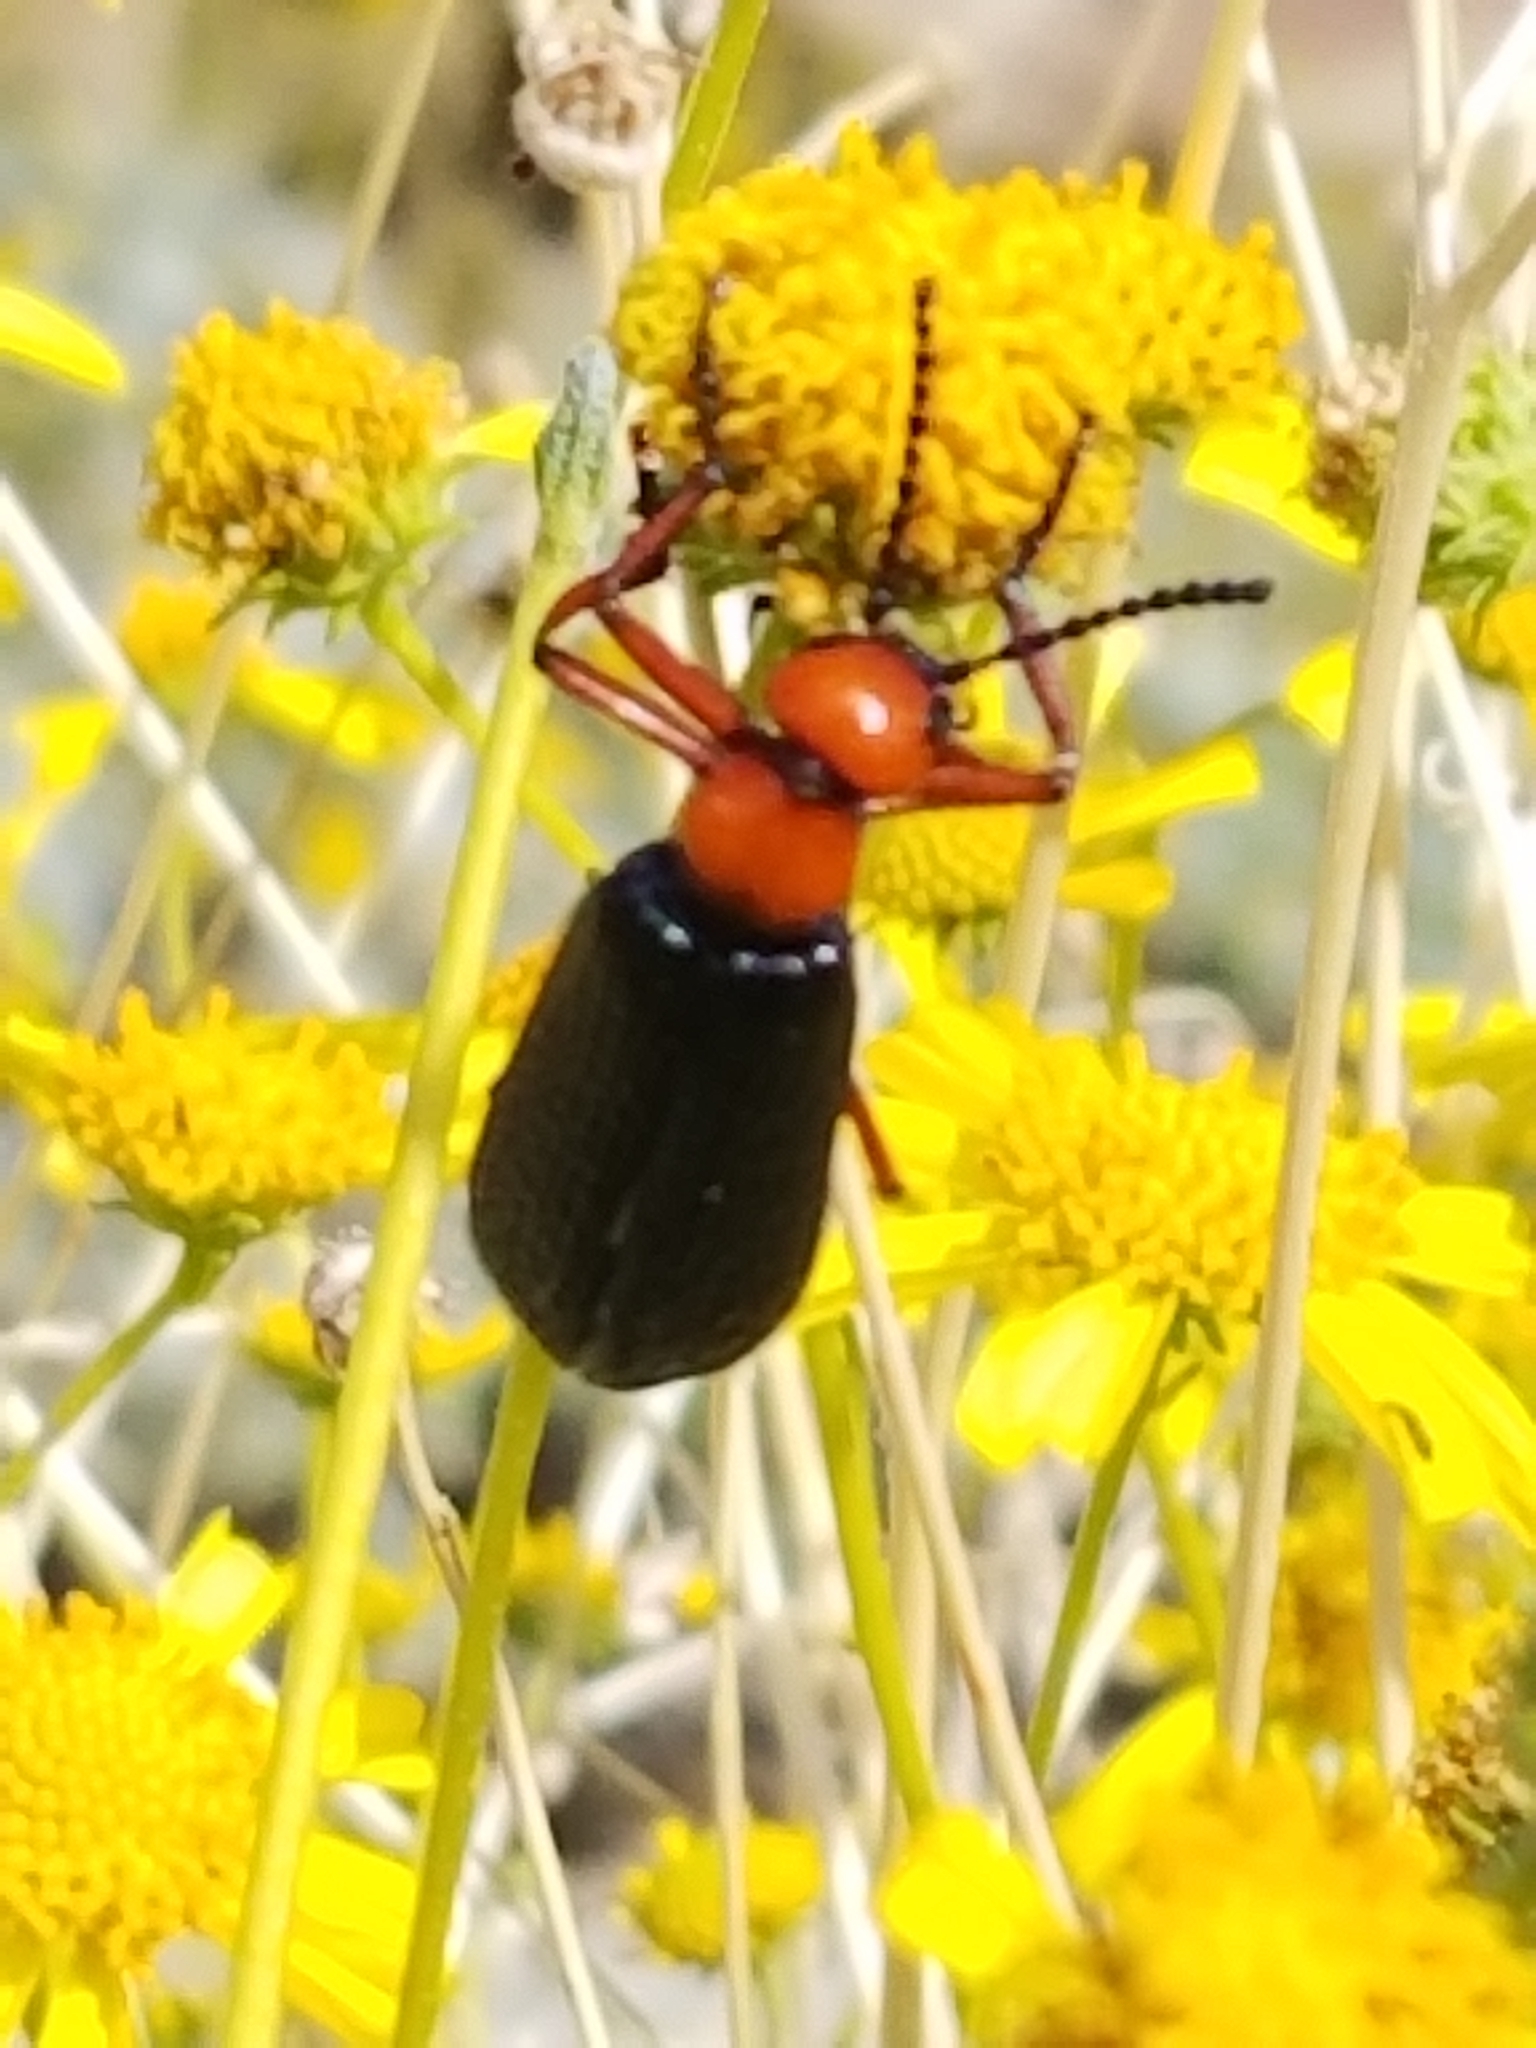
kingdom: Animalia
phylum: Arthropoda
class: Insecta
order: Coleoptera
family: Meloidae
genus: Lytta
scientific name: Lytta magister
